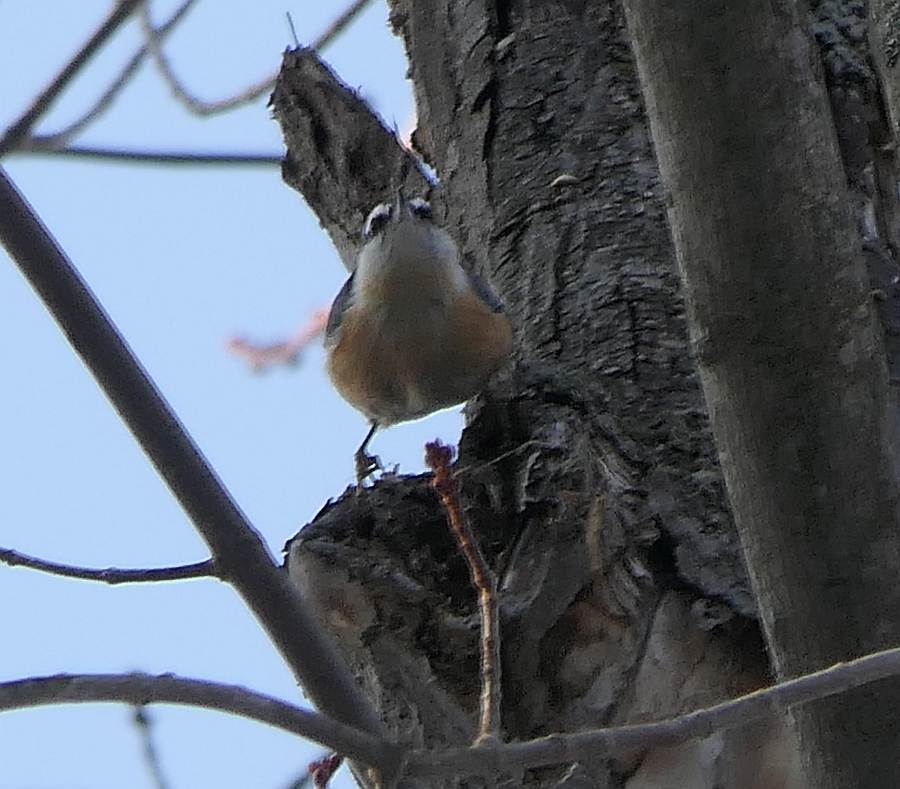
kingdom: Animalia
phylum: Chordata
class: Aves
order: Passeriformes
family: Sittidae
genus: Sitta
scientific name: Sitta canadensis
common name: Red-breasted nuthatch
